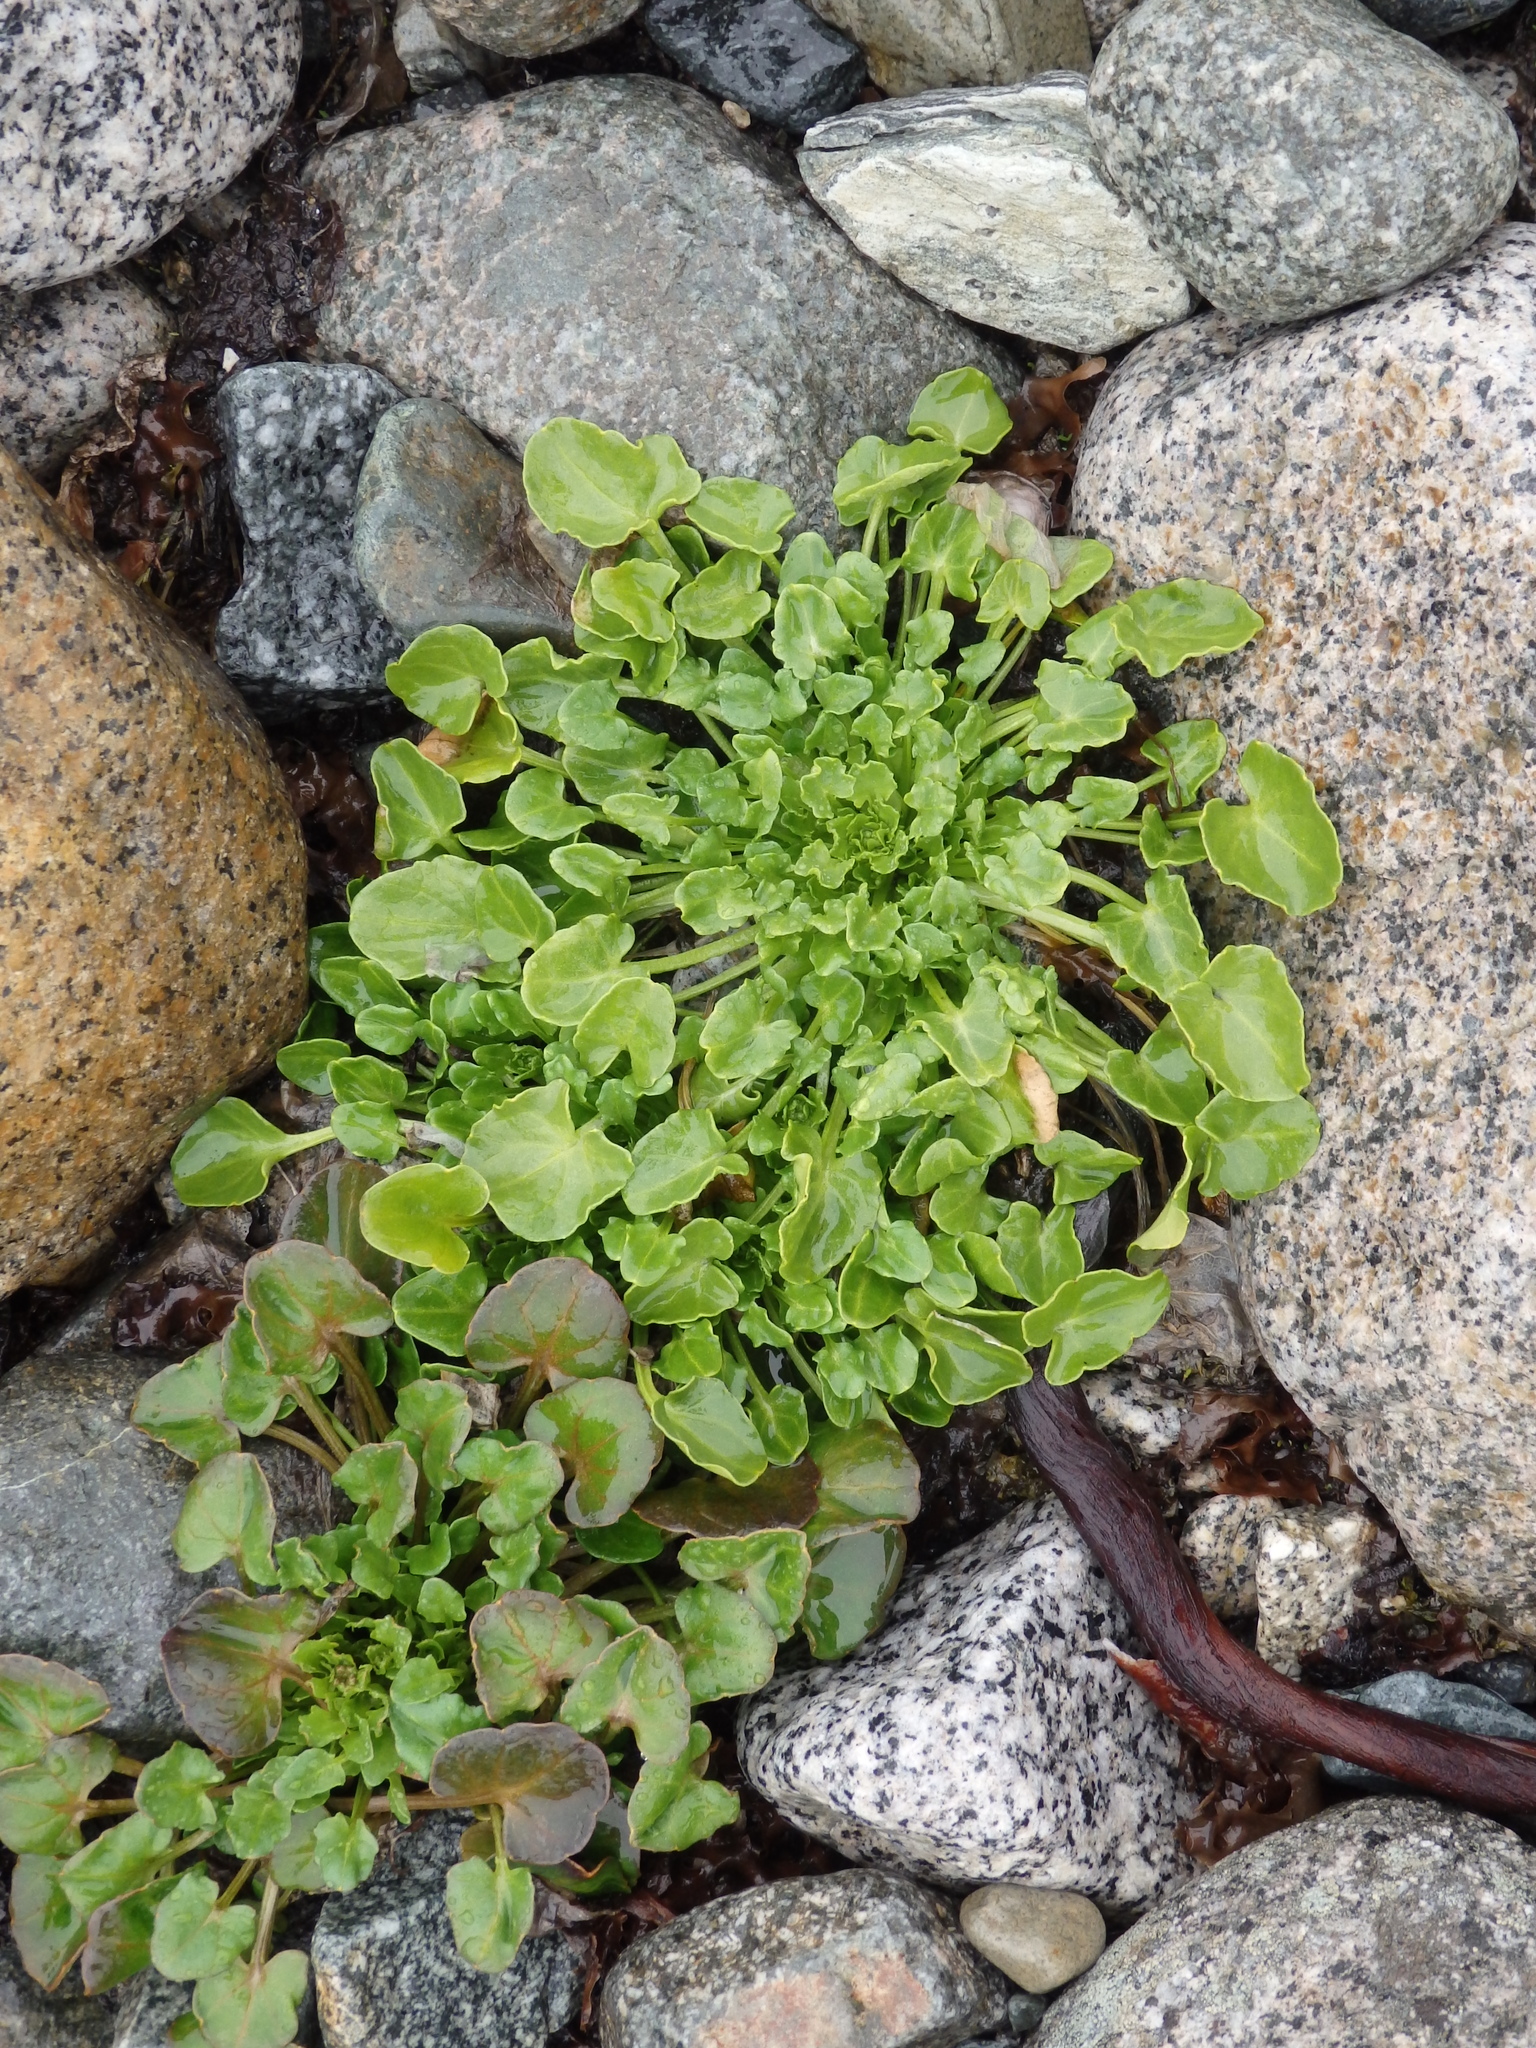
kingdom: Plantae
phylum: Tracheophyta
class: Magnoliopsida
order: Brassicales
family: Brassicaceae
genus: Cochlearia
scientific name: Cochlearia groenlandica
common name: Danish scurvygrass
